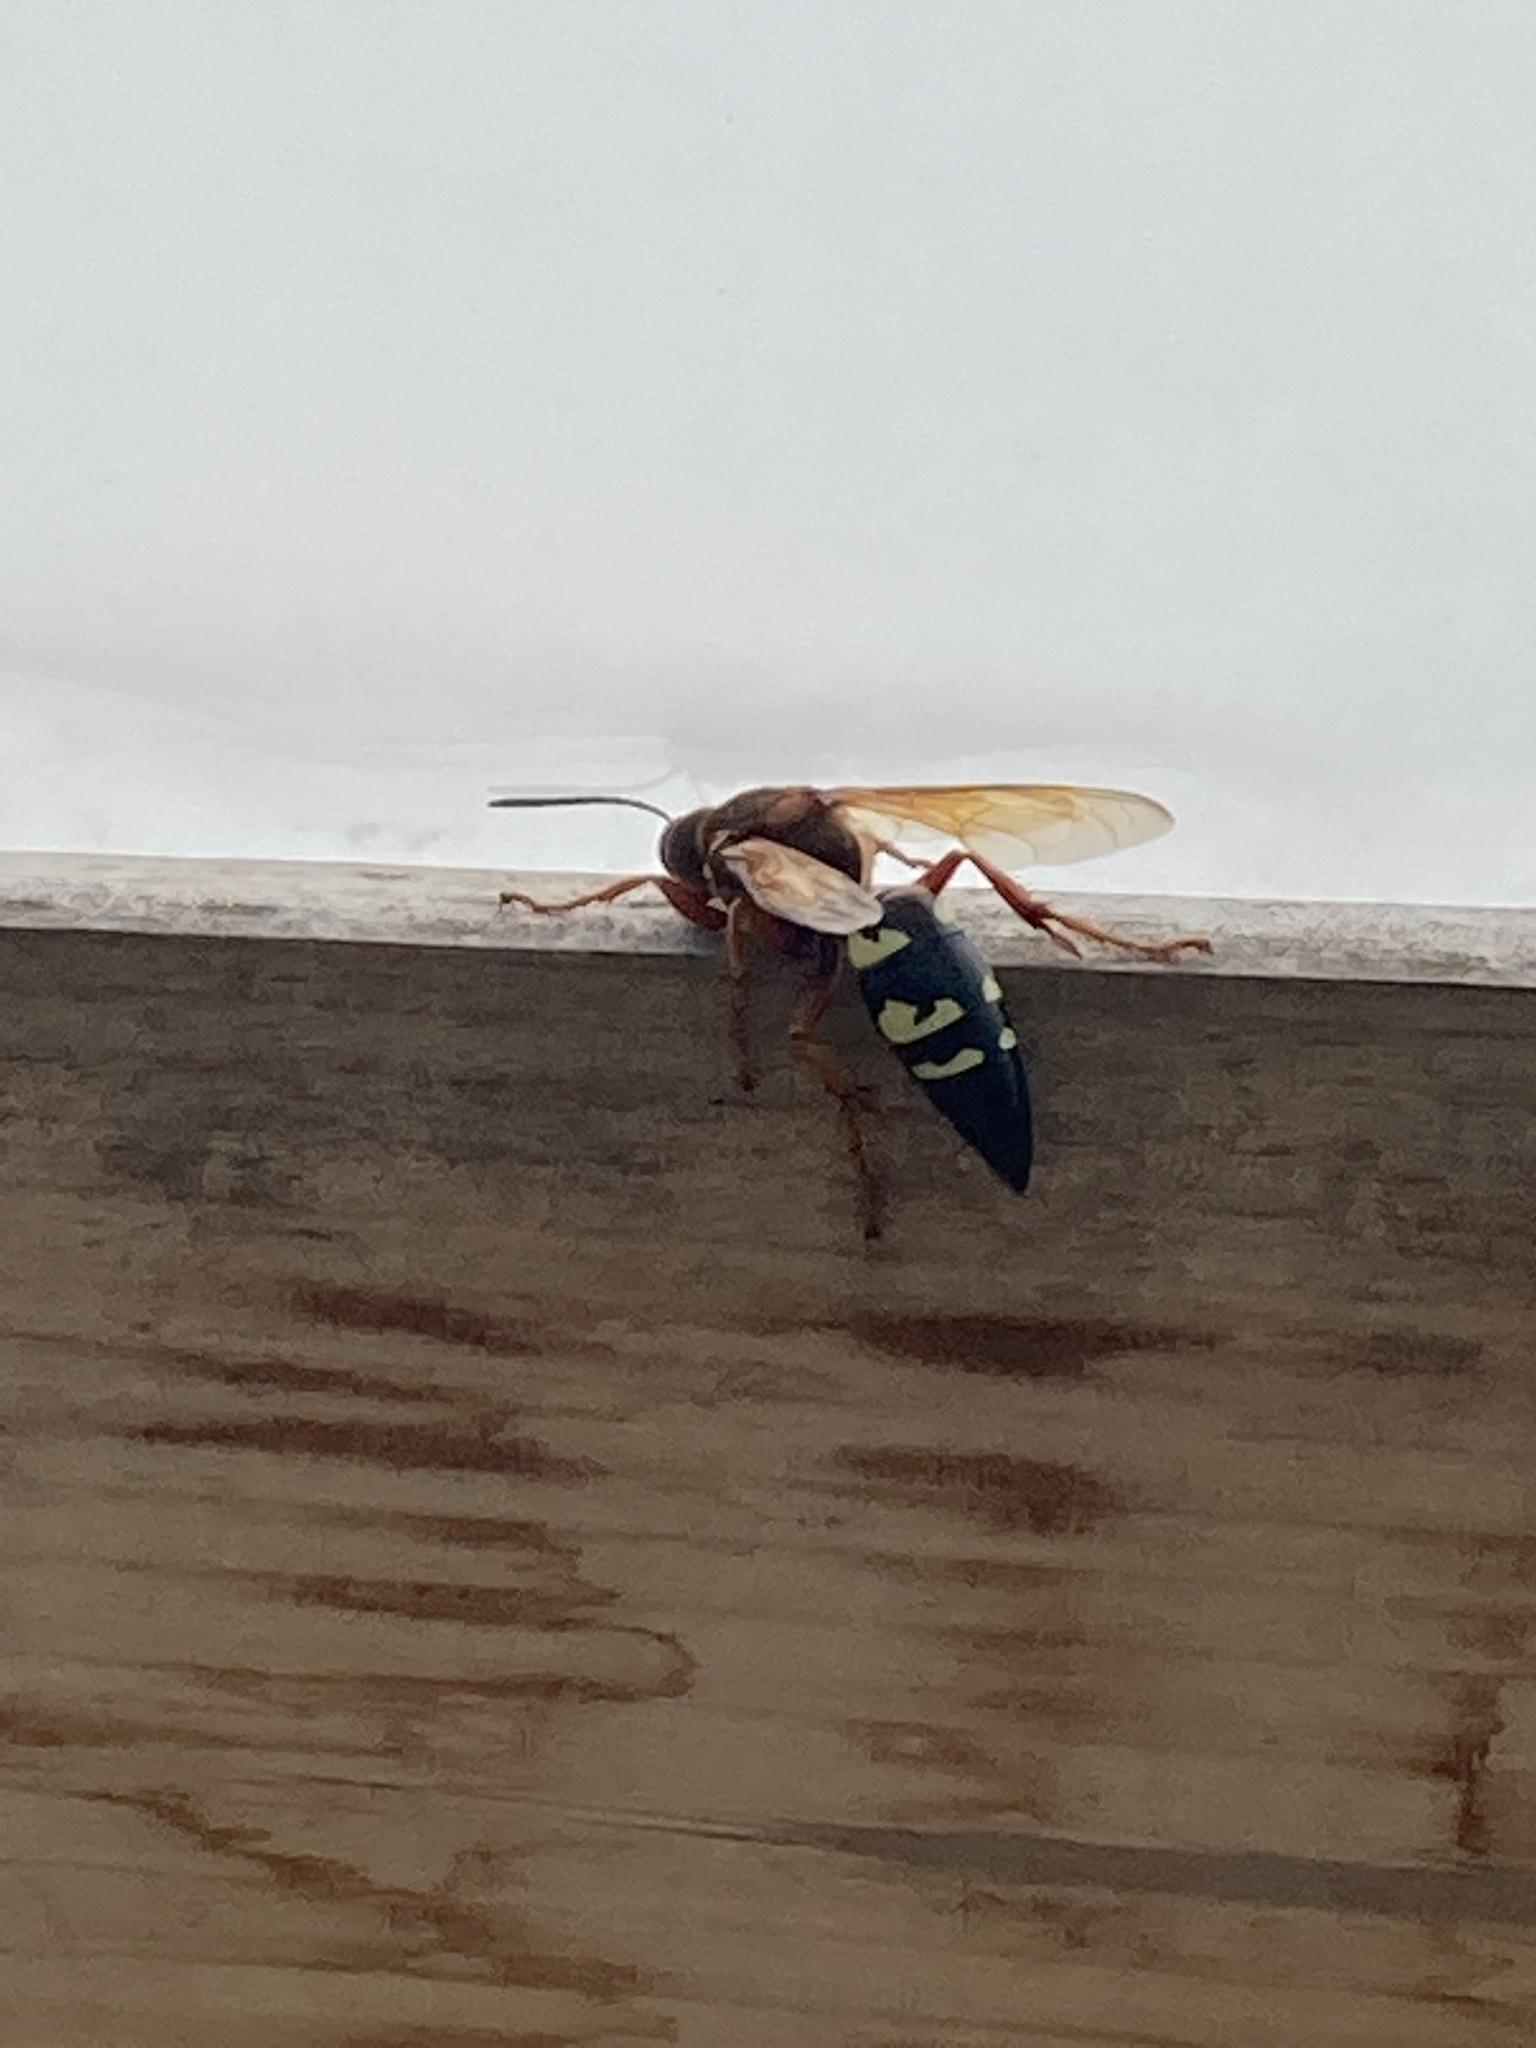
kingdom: Animalia
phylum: Arthropoda
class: Insecta
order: Hymenoptera
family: Crabronidae
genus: Sphecius
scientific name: Sphecius speciosus
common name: Cicada killer
